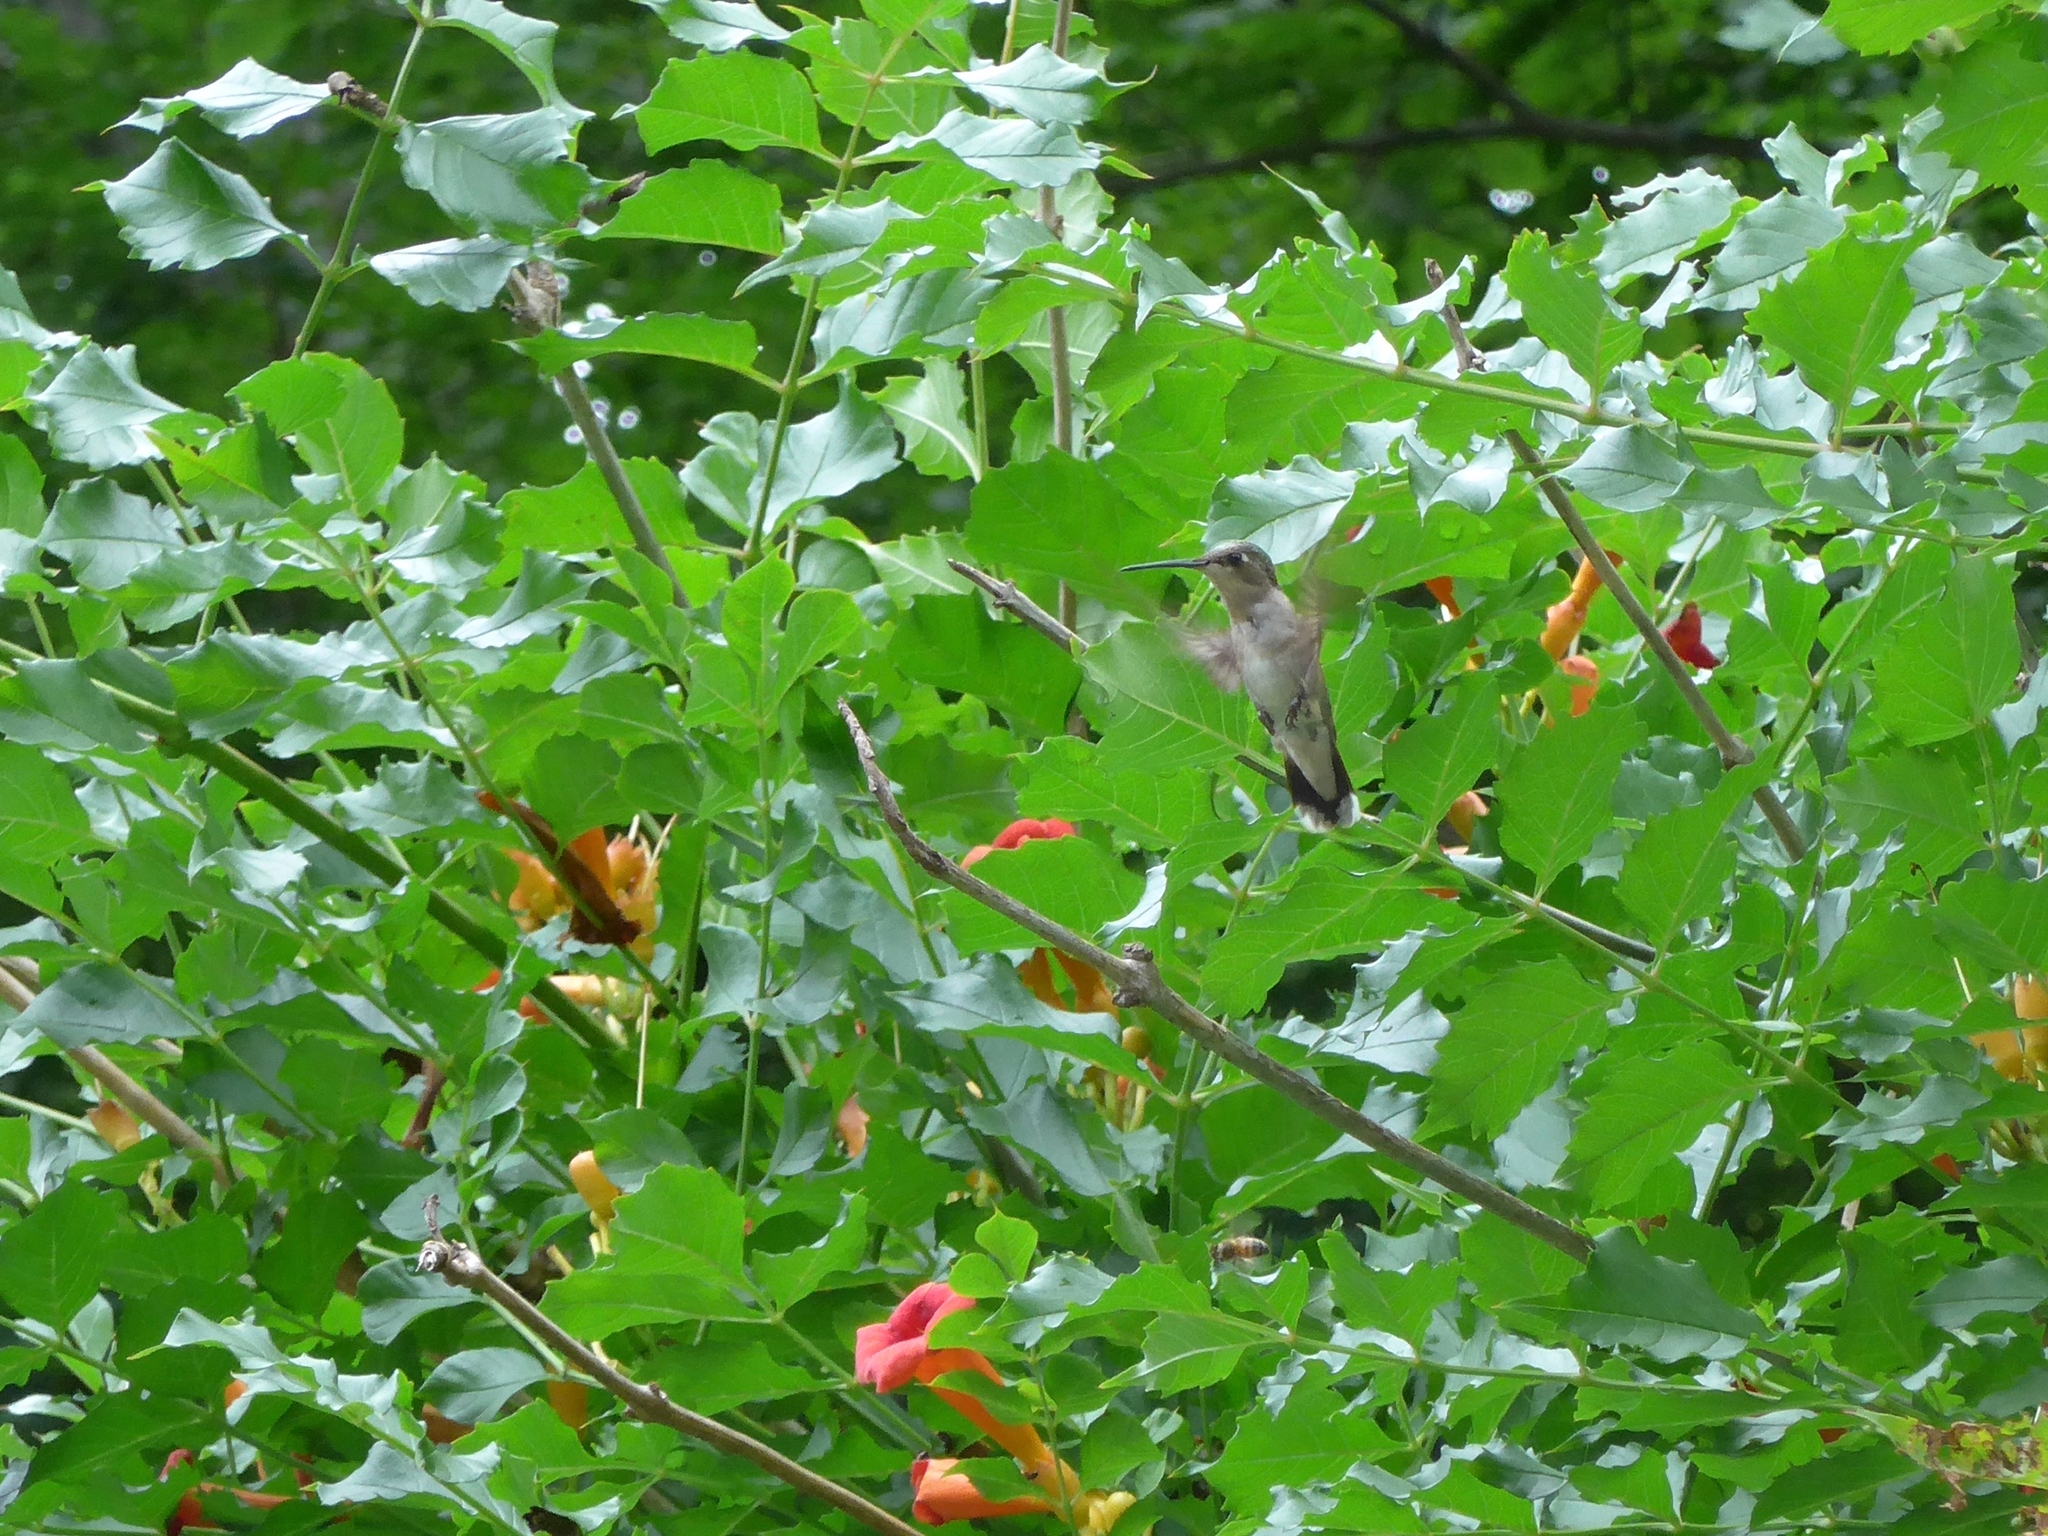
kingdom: Animalia
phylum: Chordata
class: Aves
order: Apodiformes
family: Trochilidae
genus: Archilochus
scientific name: Archilochus colubris
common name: Ruby-throated hummingbird
